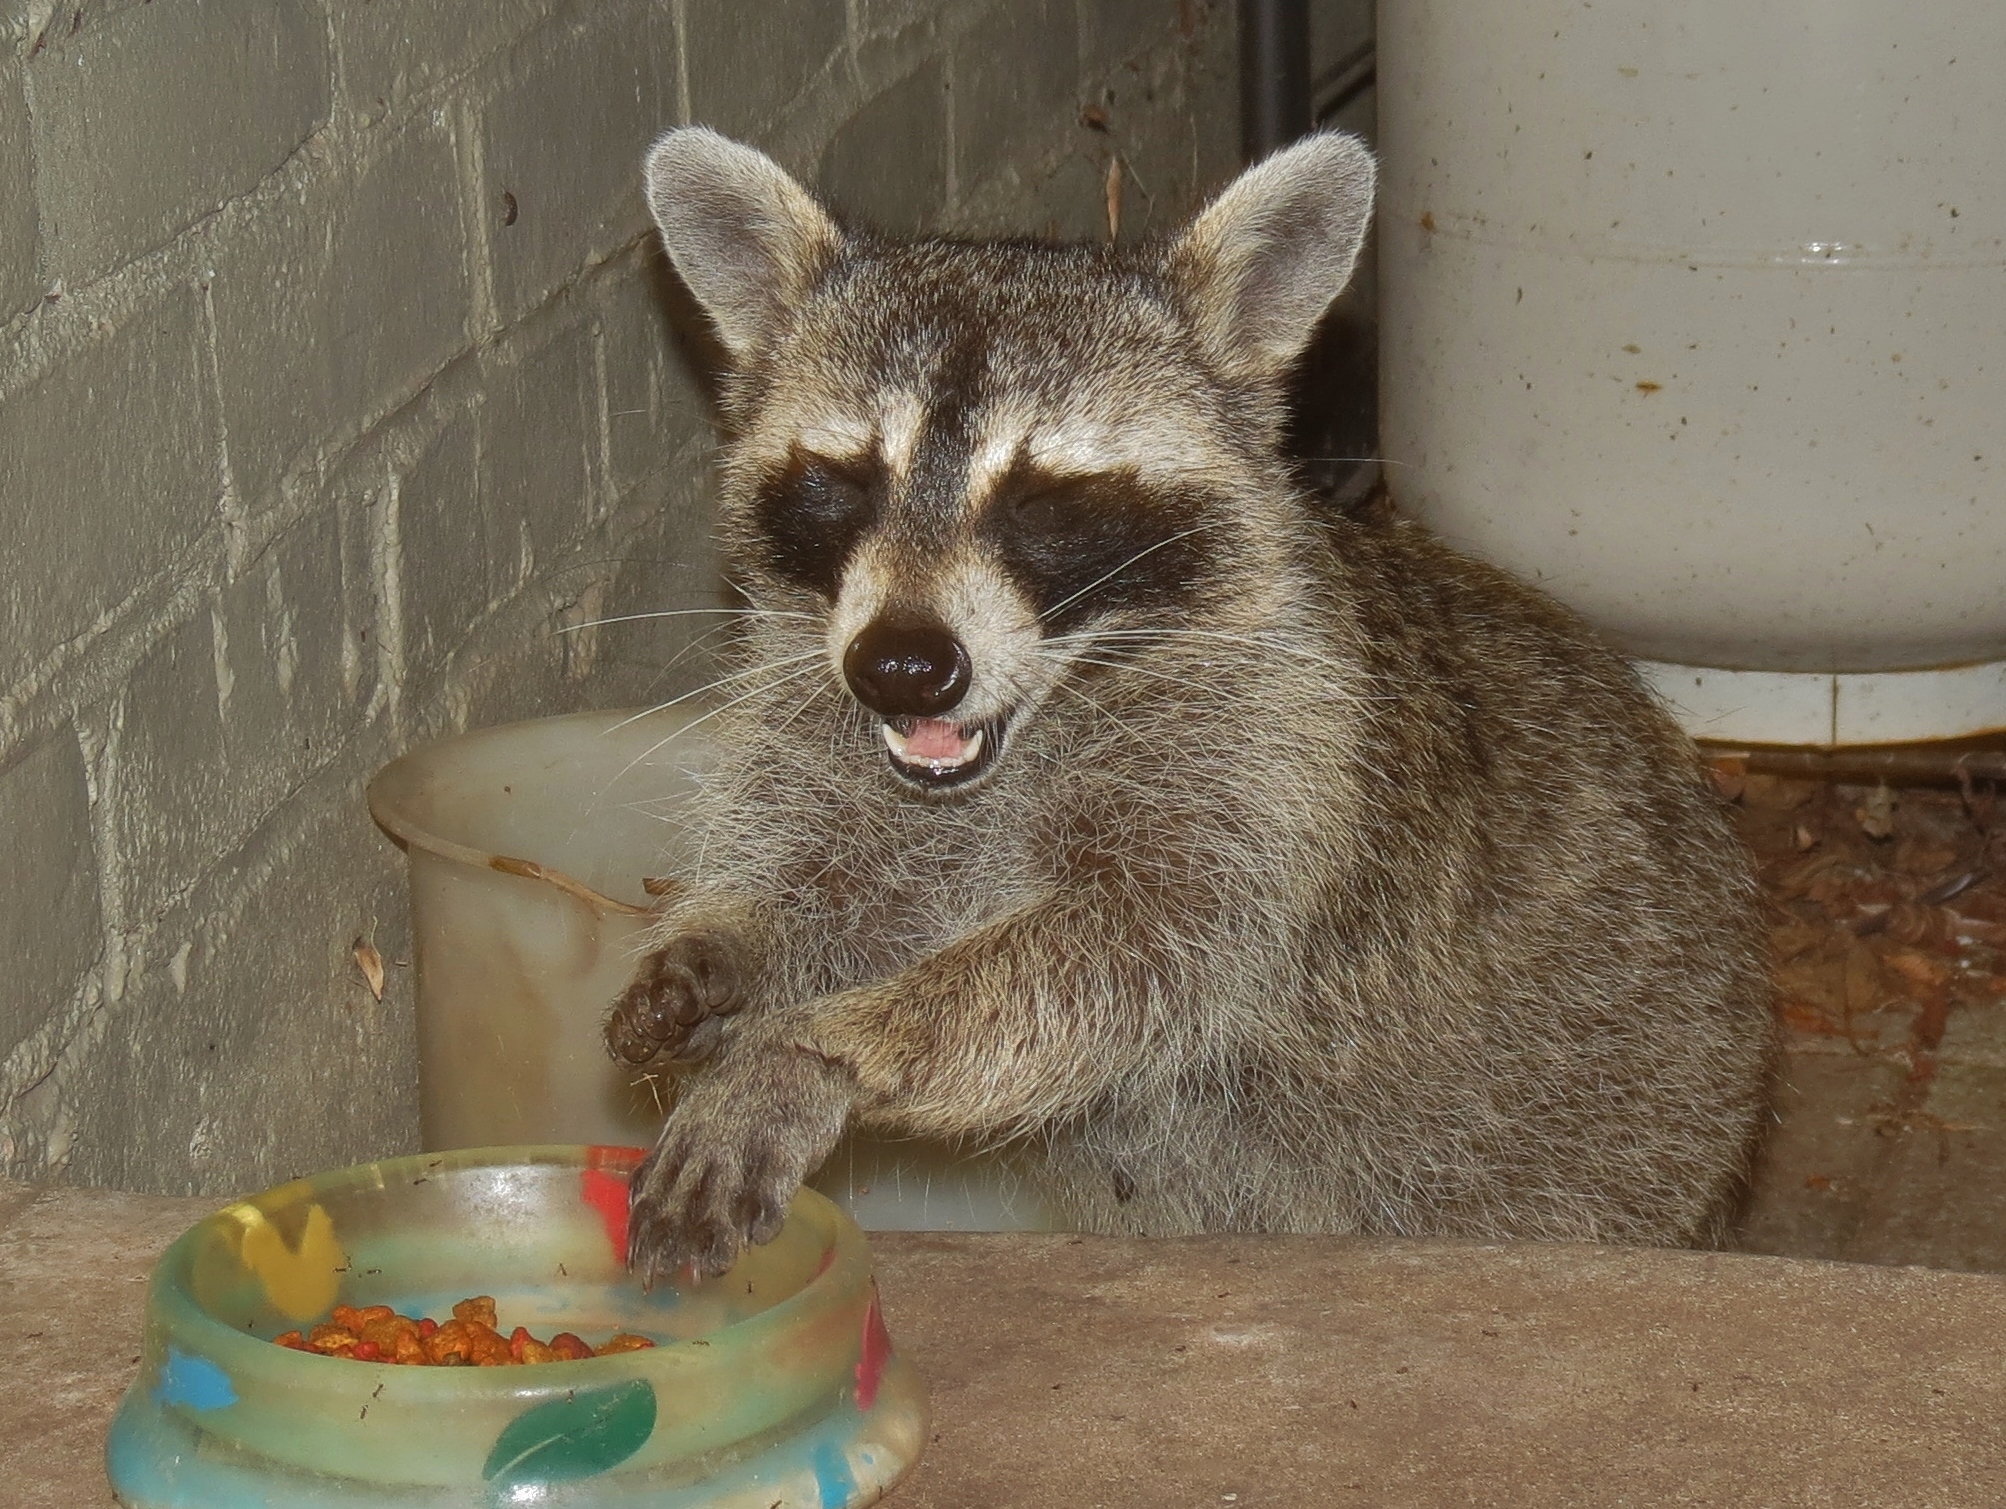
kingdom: Animalia
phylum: Chordata
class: Mammalia
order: Carnivora
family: Procyonidae
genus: Procyon
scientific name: Procyon lotor
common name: Raccoon
